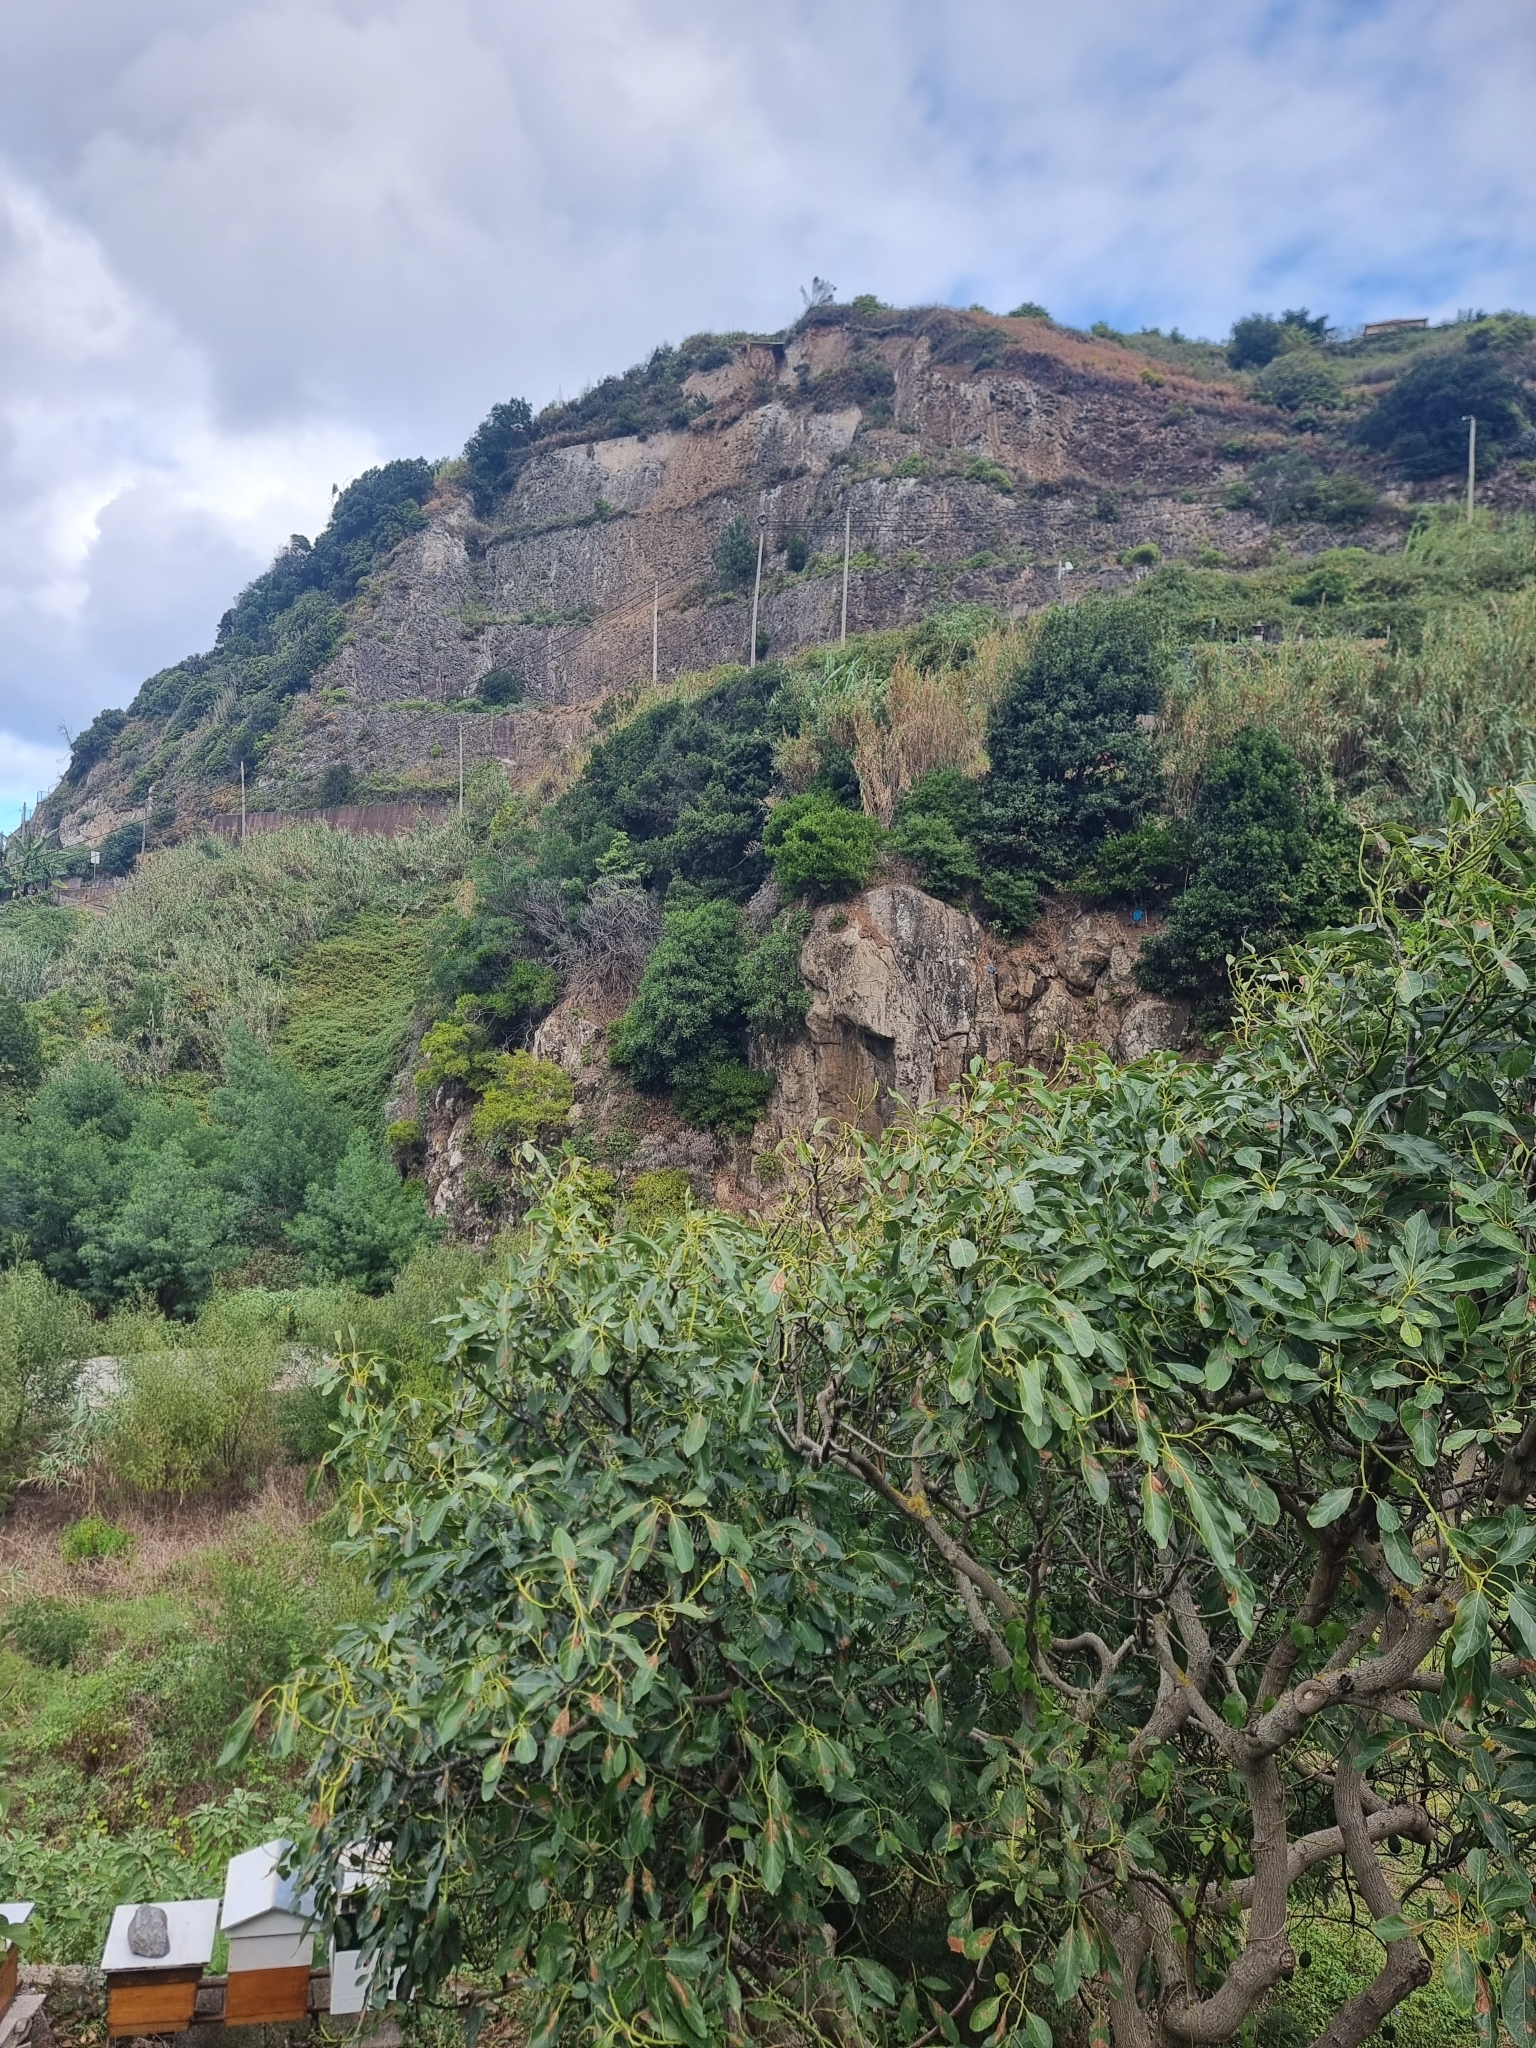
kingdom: Plantae
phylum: Tracheophyta
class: Magnoliopsida
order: Ericales
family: Sapotaceae
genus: Sideroxylon
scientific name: Sideroxylon mirmulans
